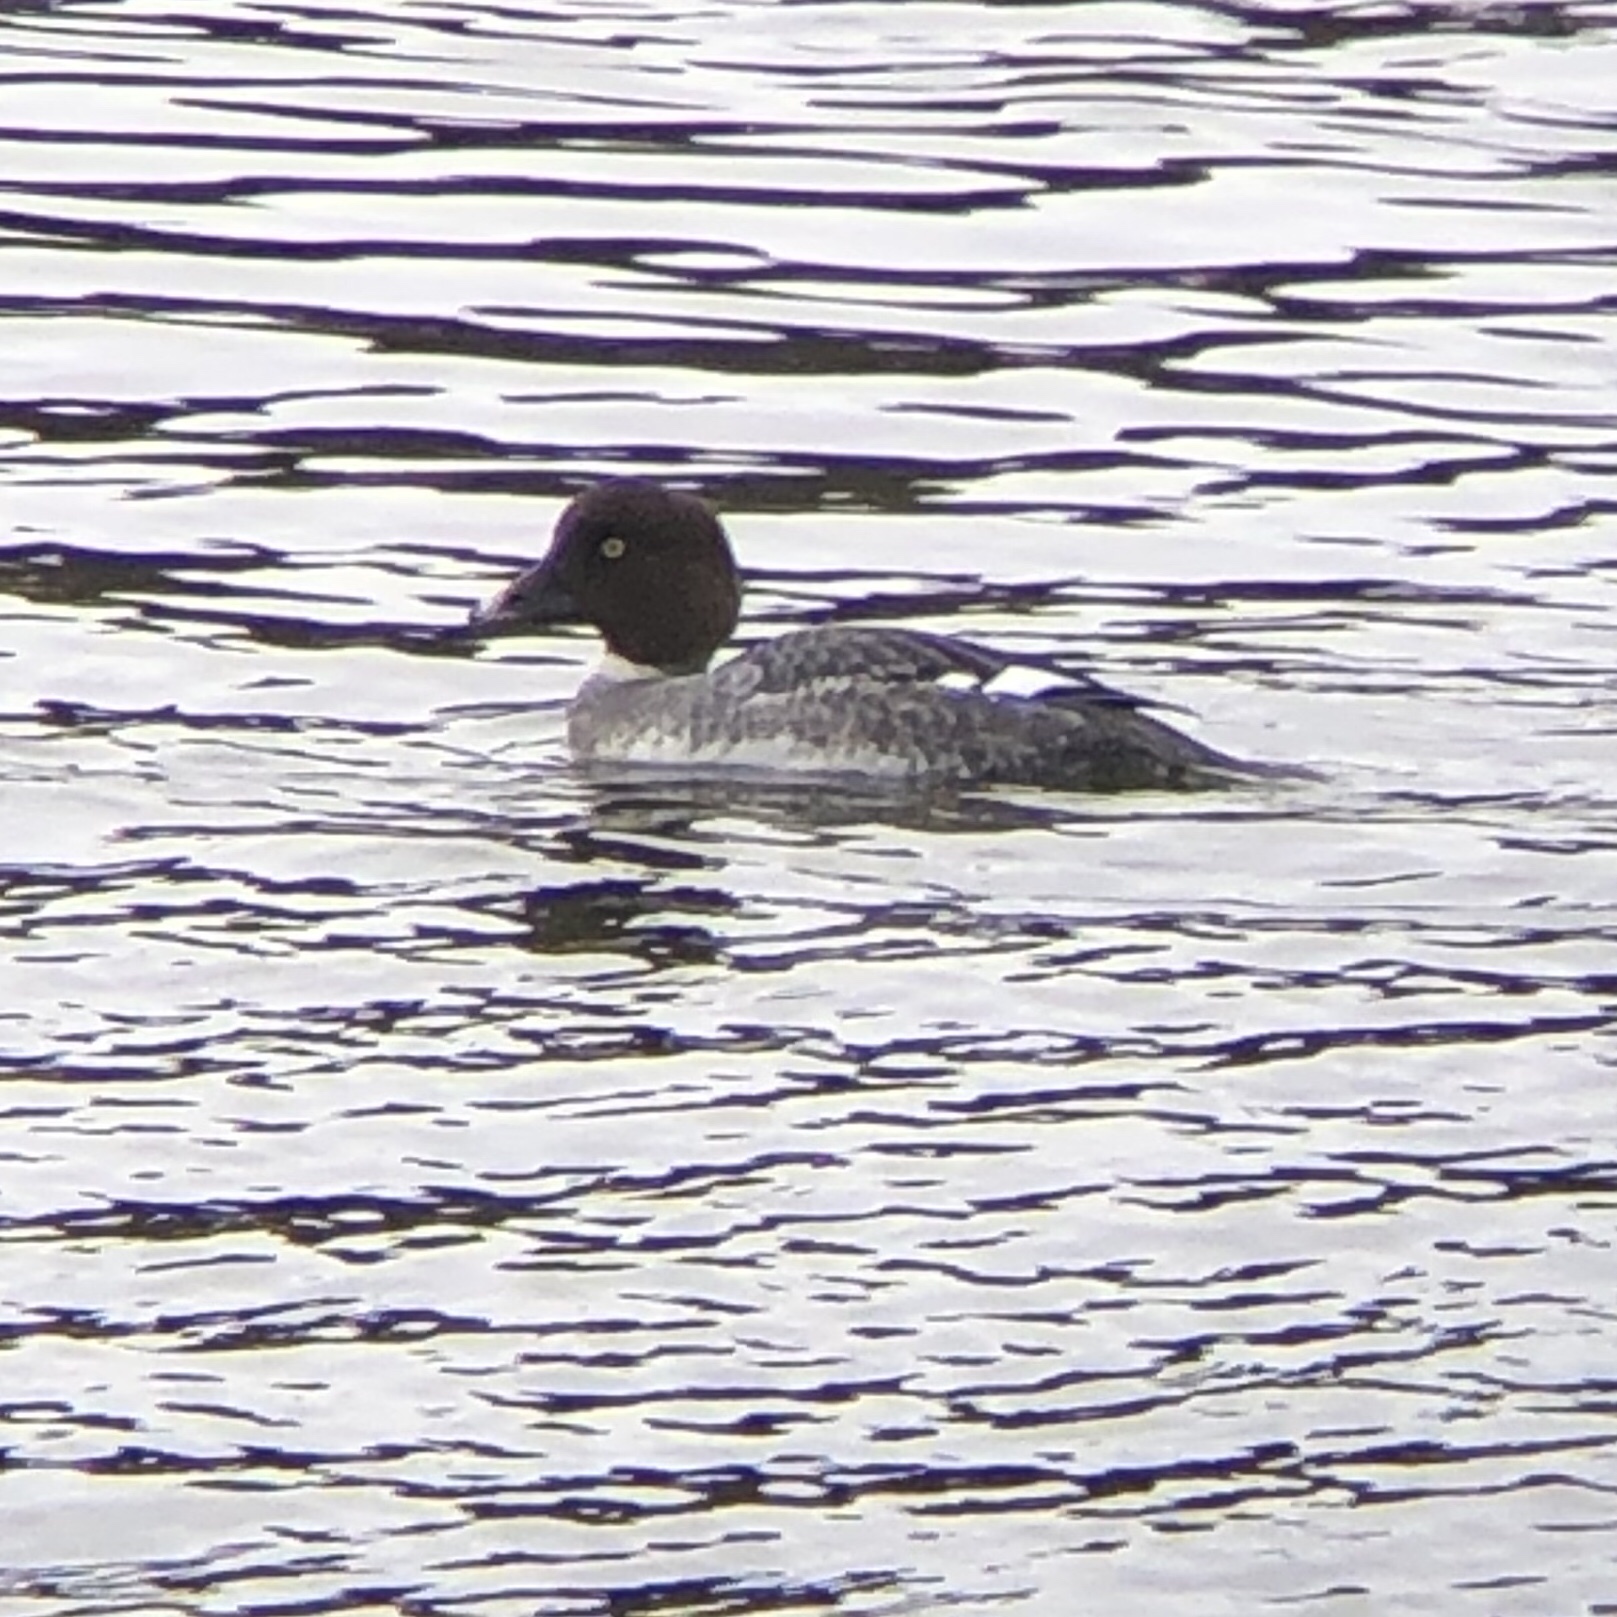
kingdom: Animalia
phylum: Chordata
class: Aves
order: Anseriformes
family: Anatidae
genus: Bucephala
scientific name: Bucephala clangula
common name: Common goldeneye
